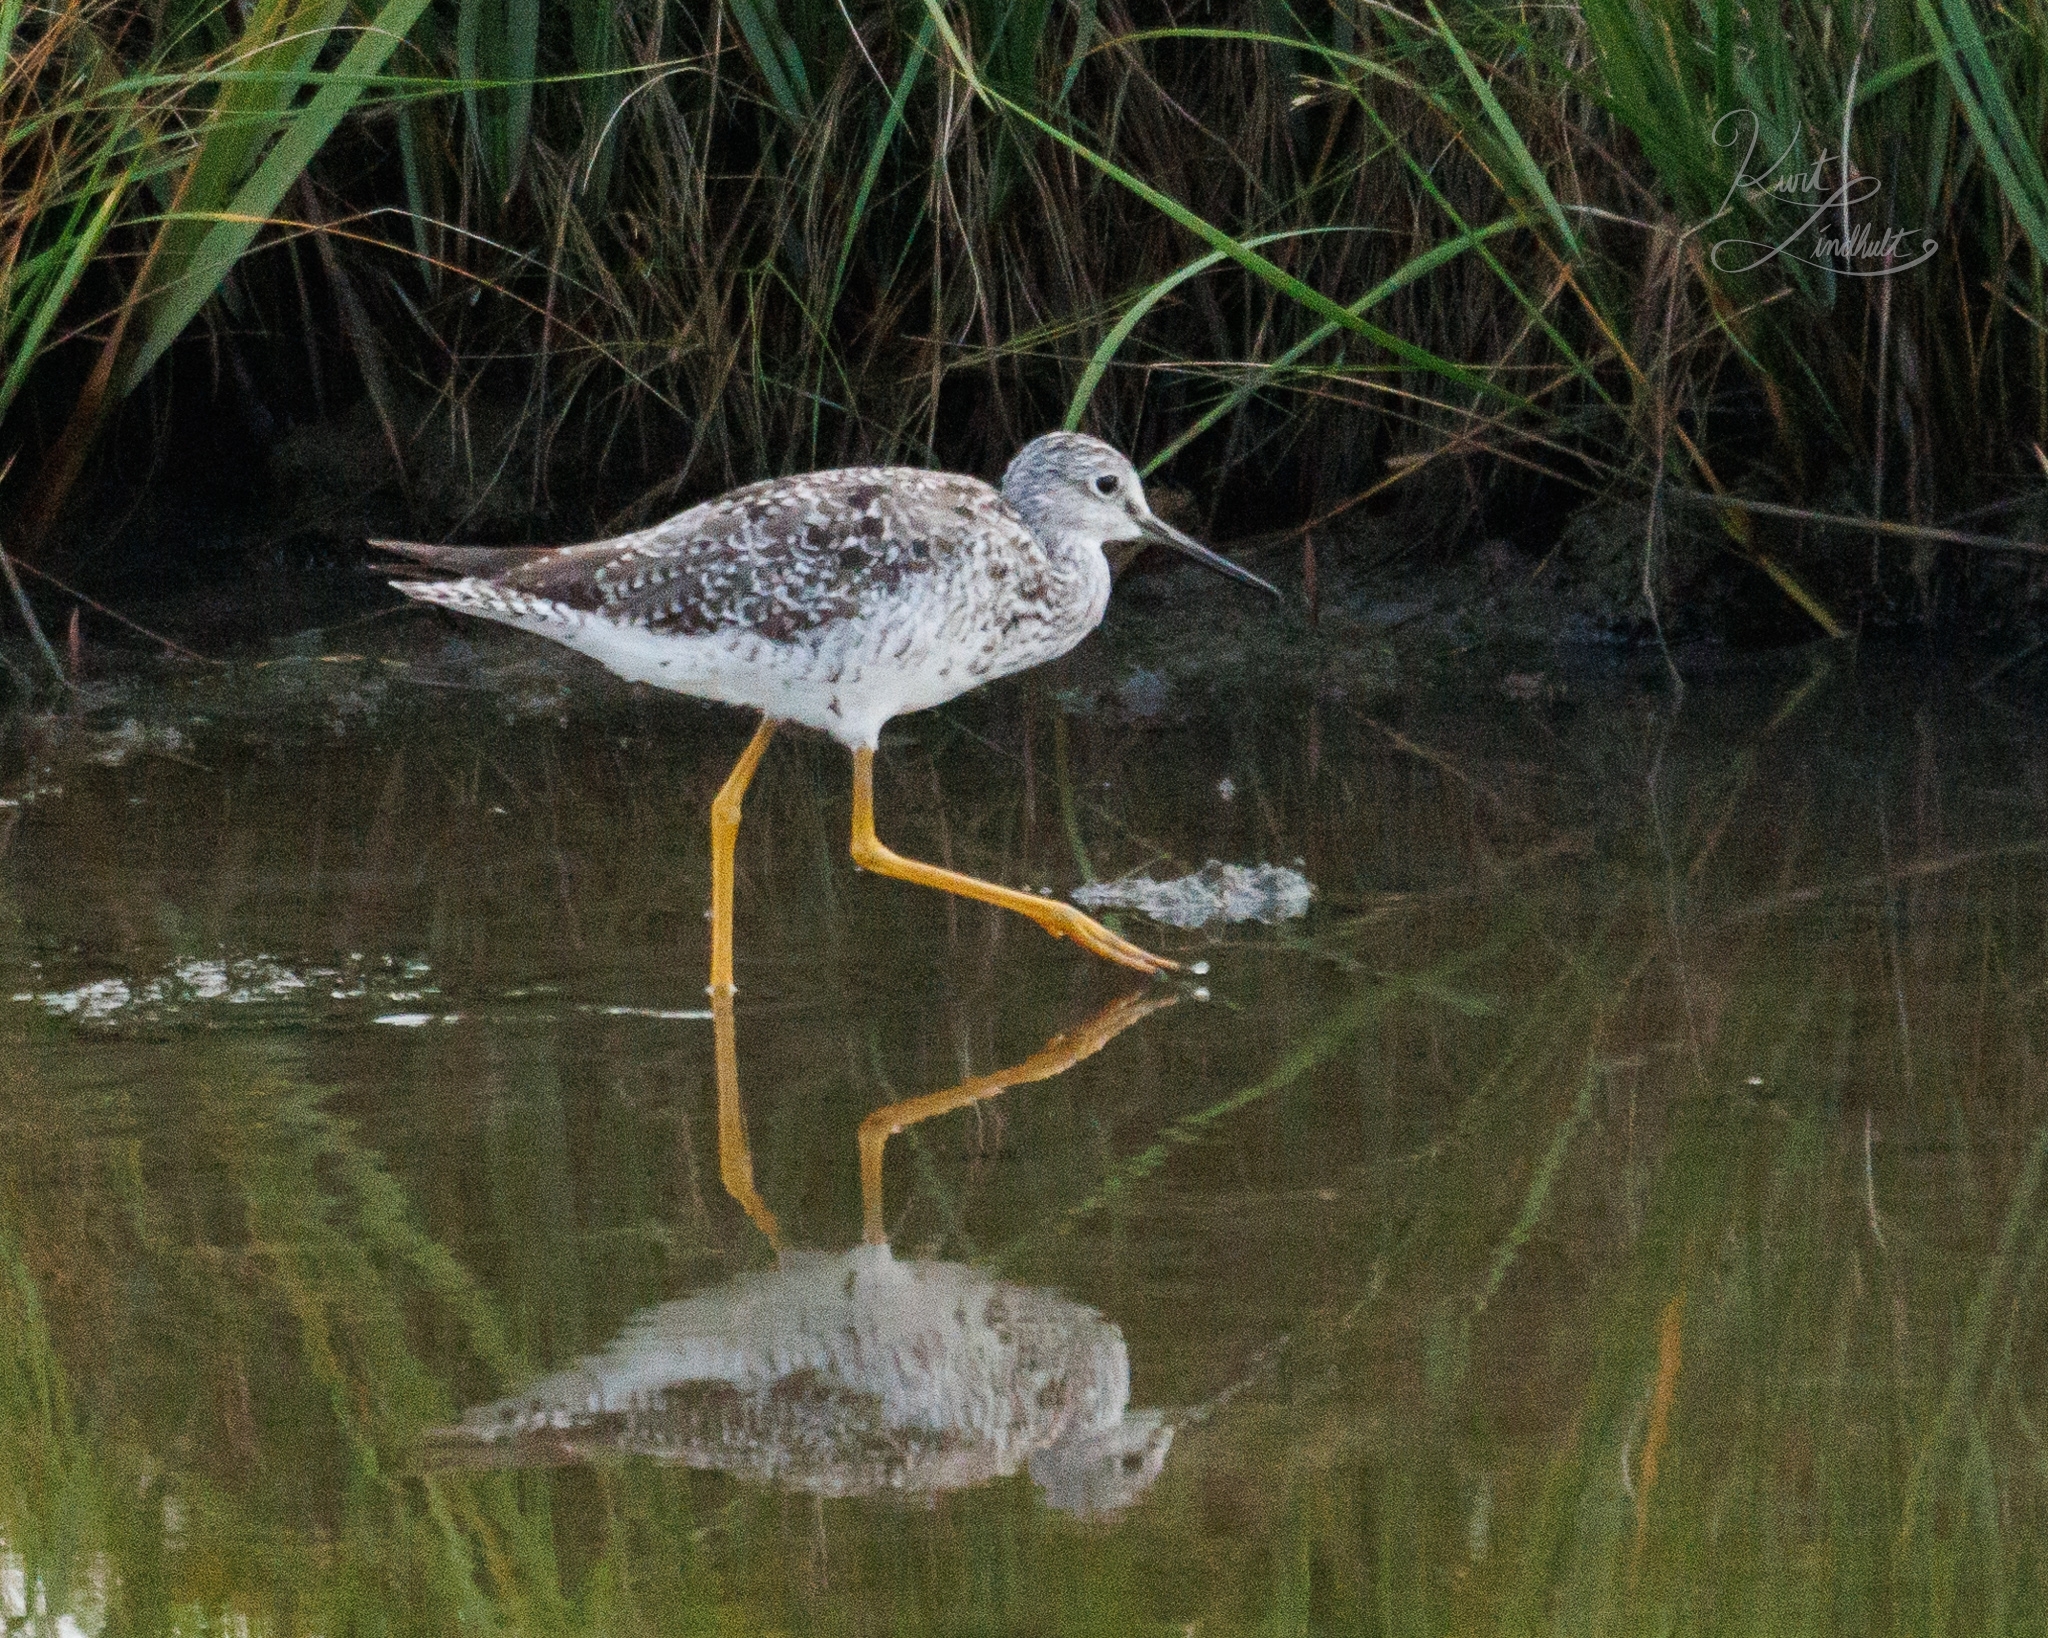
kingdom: Animalia
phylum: Chordata
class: Aves
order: Charadriiformes
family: Scolopacidae
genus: Tringa
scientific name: Tringa melanoleuca
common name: Greater yellowlegs
